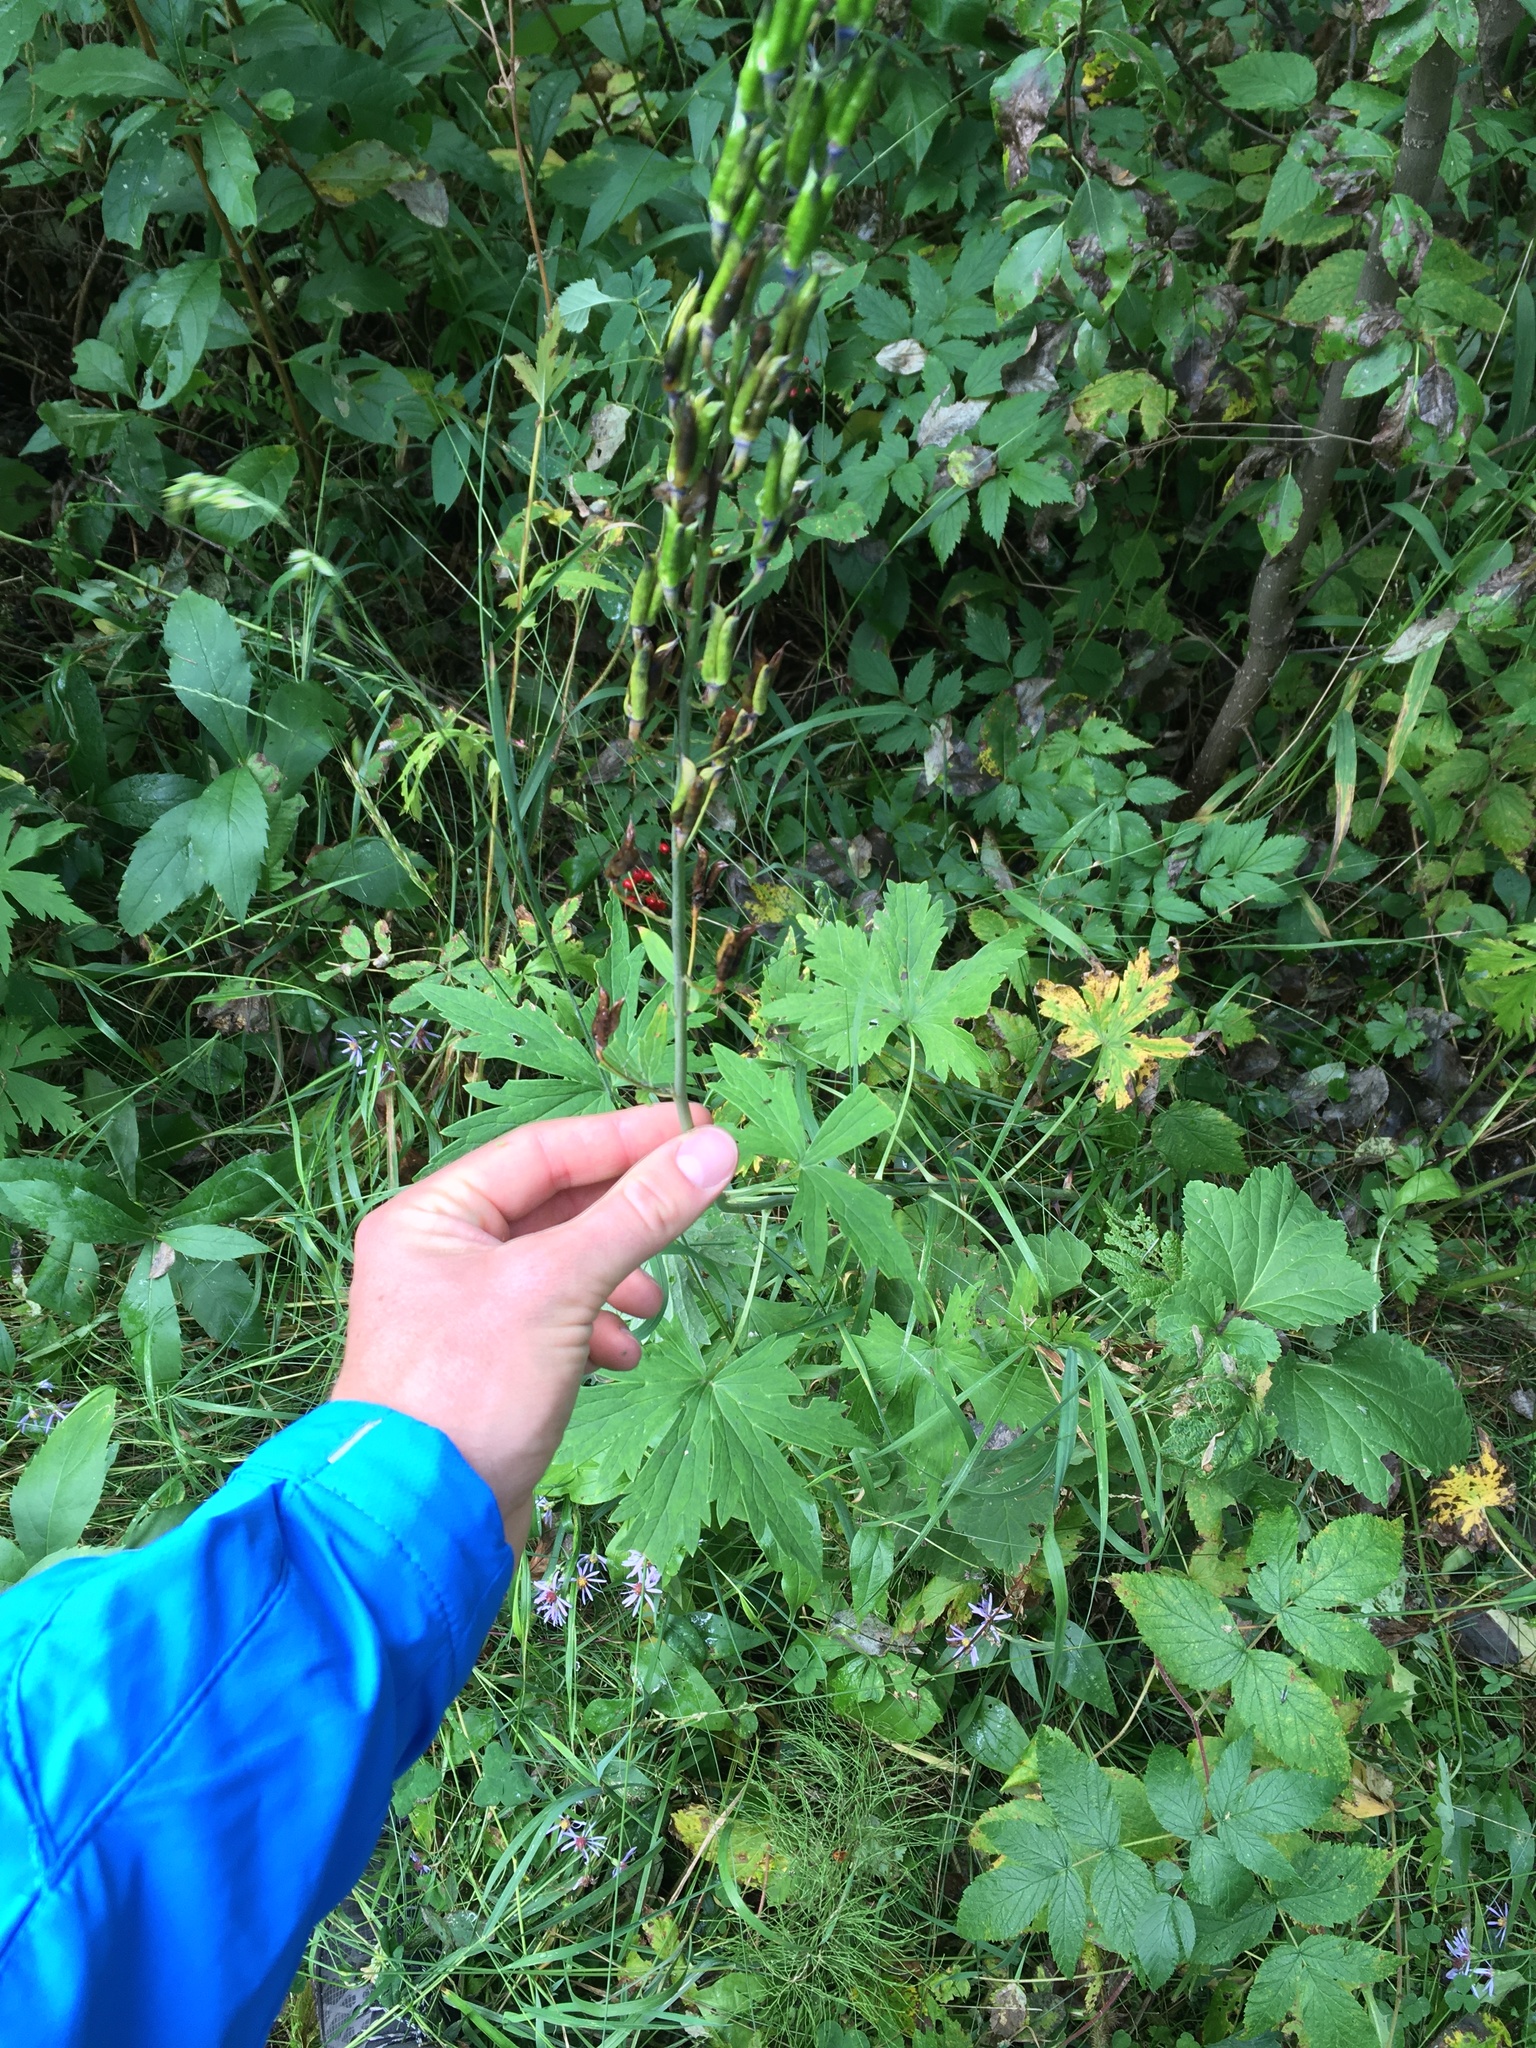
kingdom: Plantae
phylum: Tracheophyta
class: Magnoliopsida
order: Ranunculales
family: Ranunculaceae
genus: Delphinium
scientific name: Delphinium glaucum
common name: Brown's larkspur
